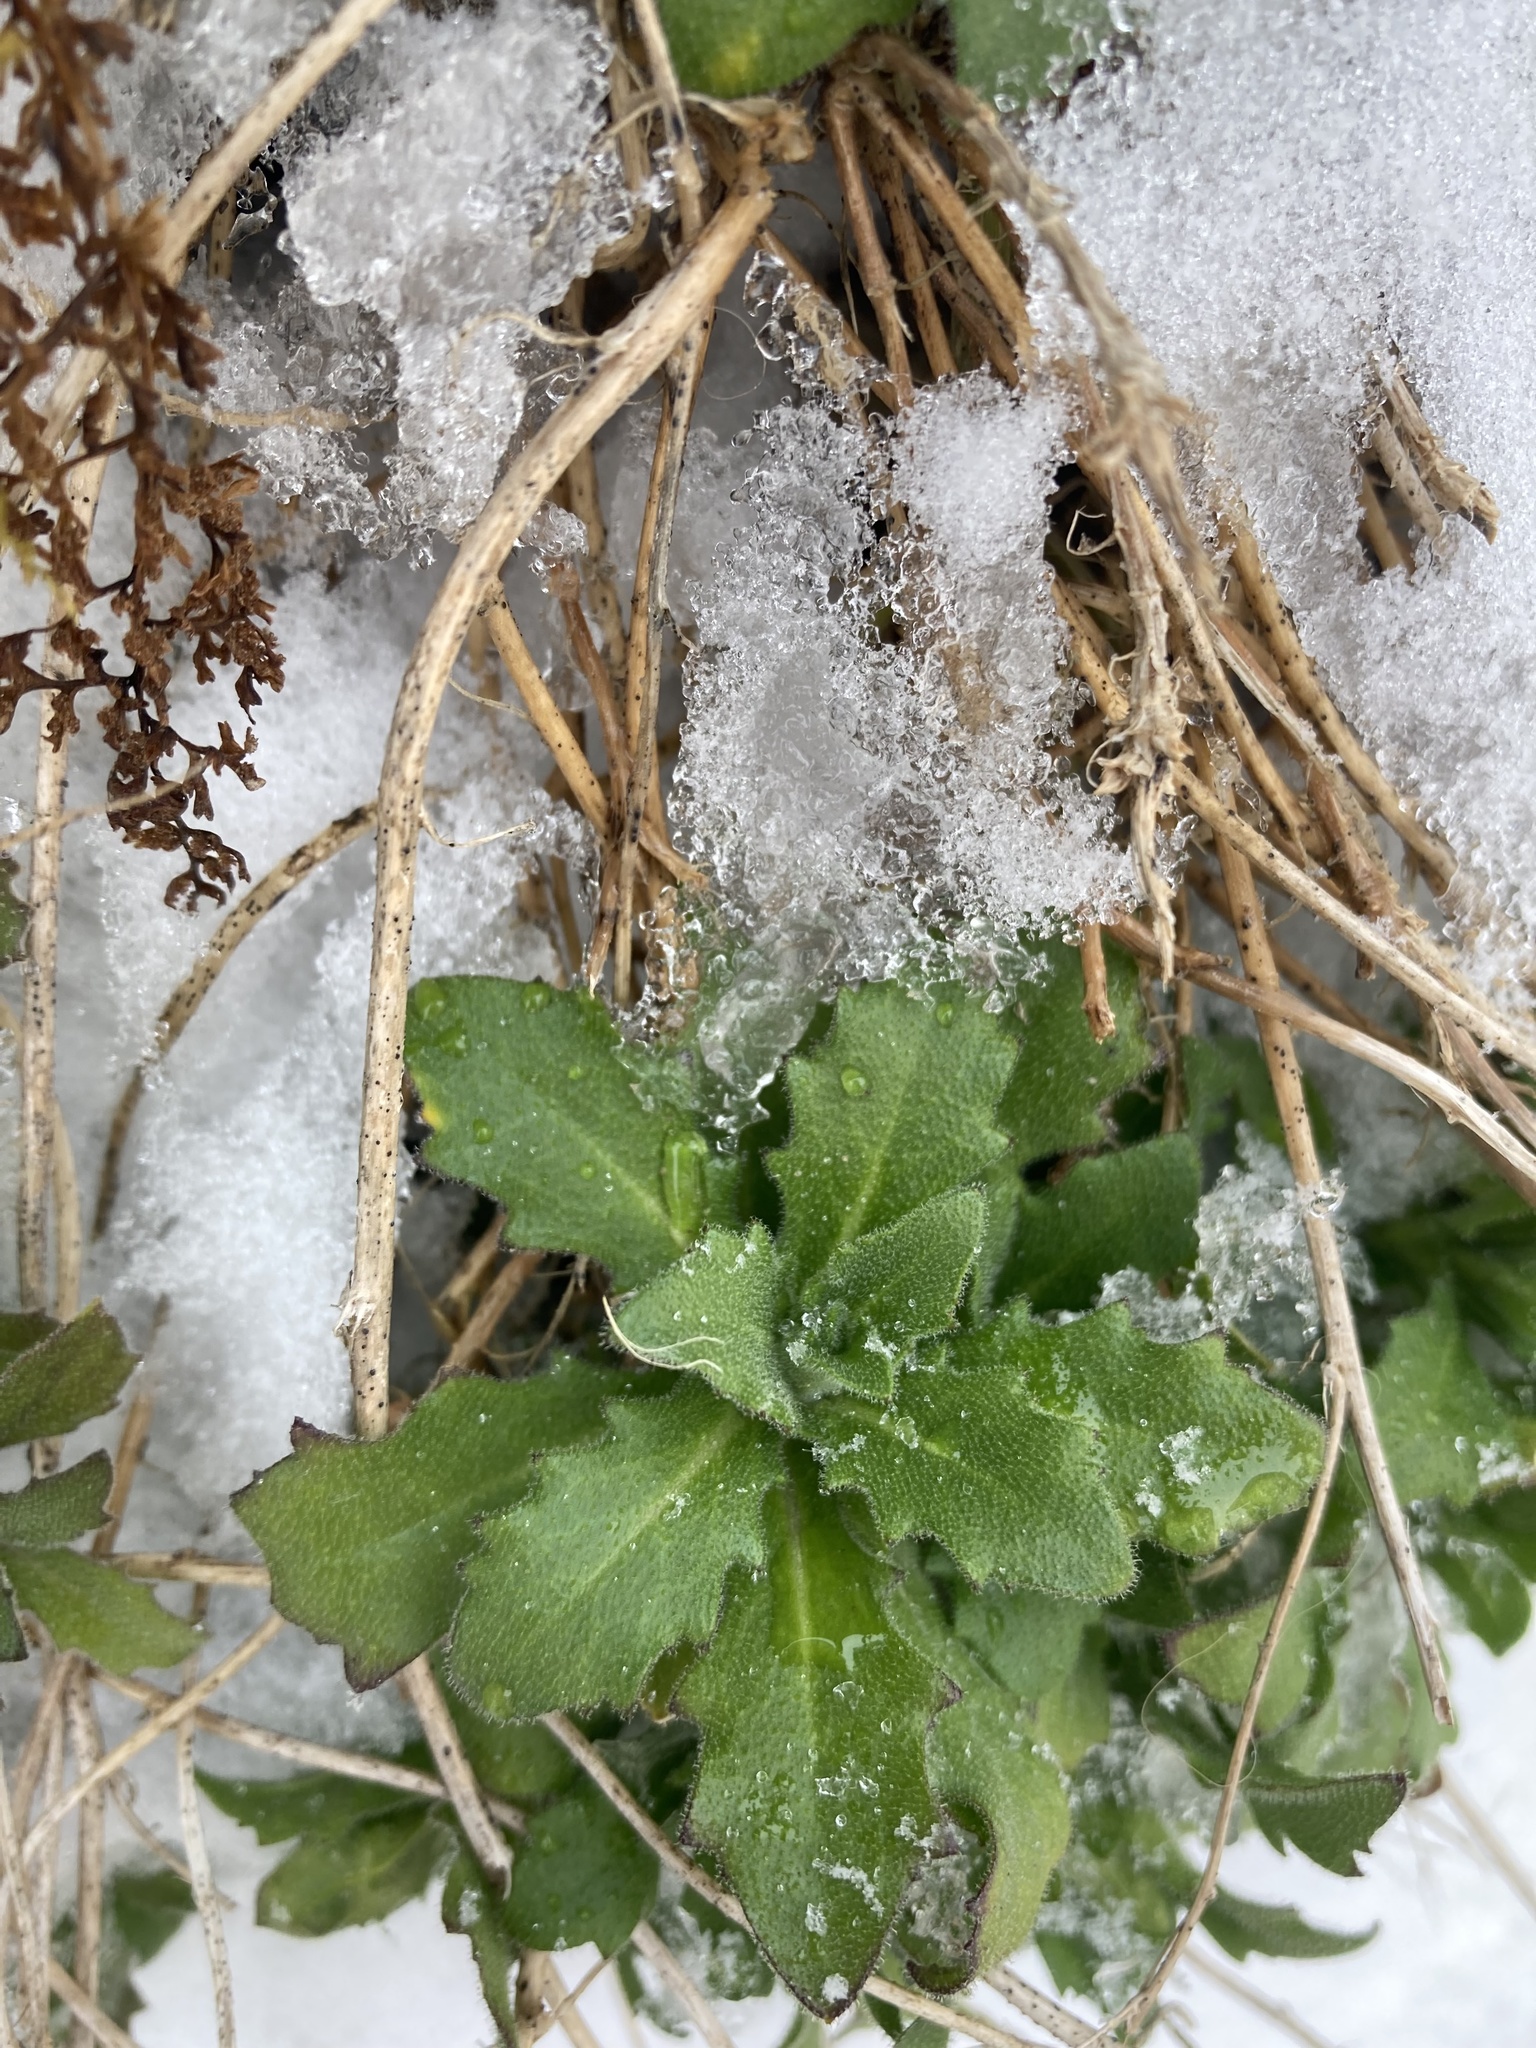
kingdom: Plantae
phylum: Tracheophyta
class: Magnoliopsida
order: Brassicales
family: Brassicaceae
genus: Arabis
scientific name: Arabis alpina
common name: Alpine rock-cress
